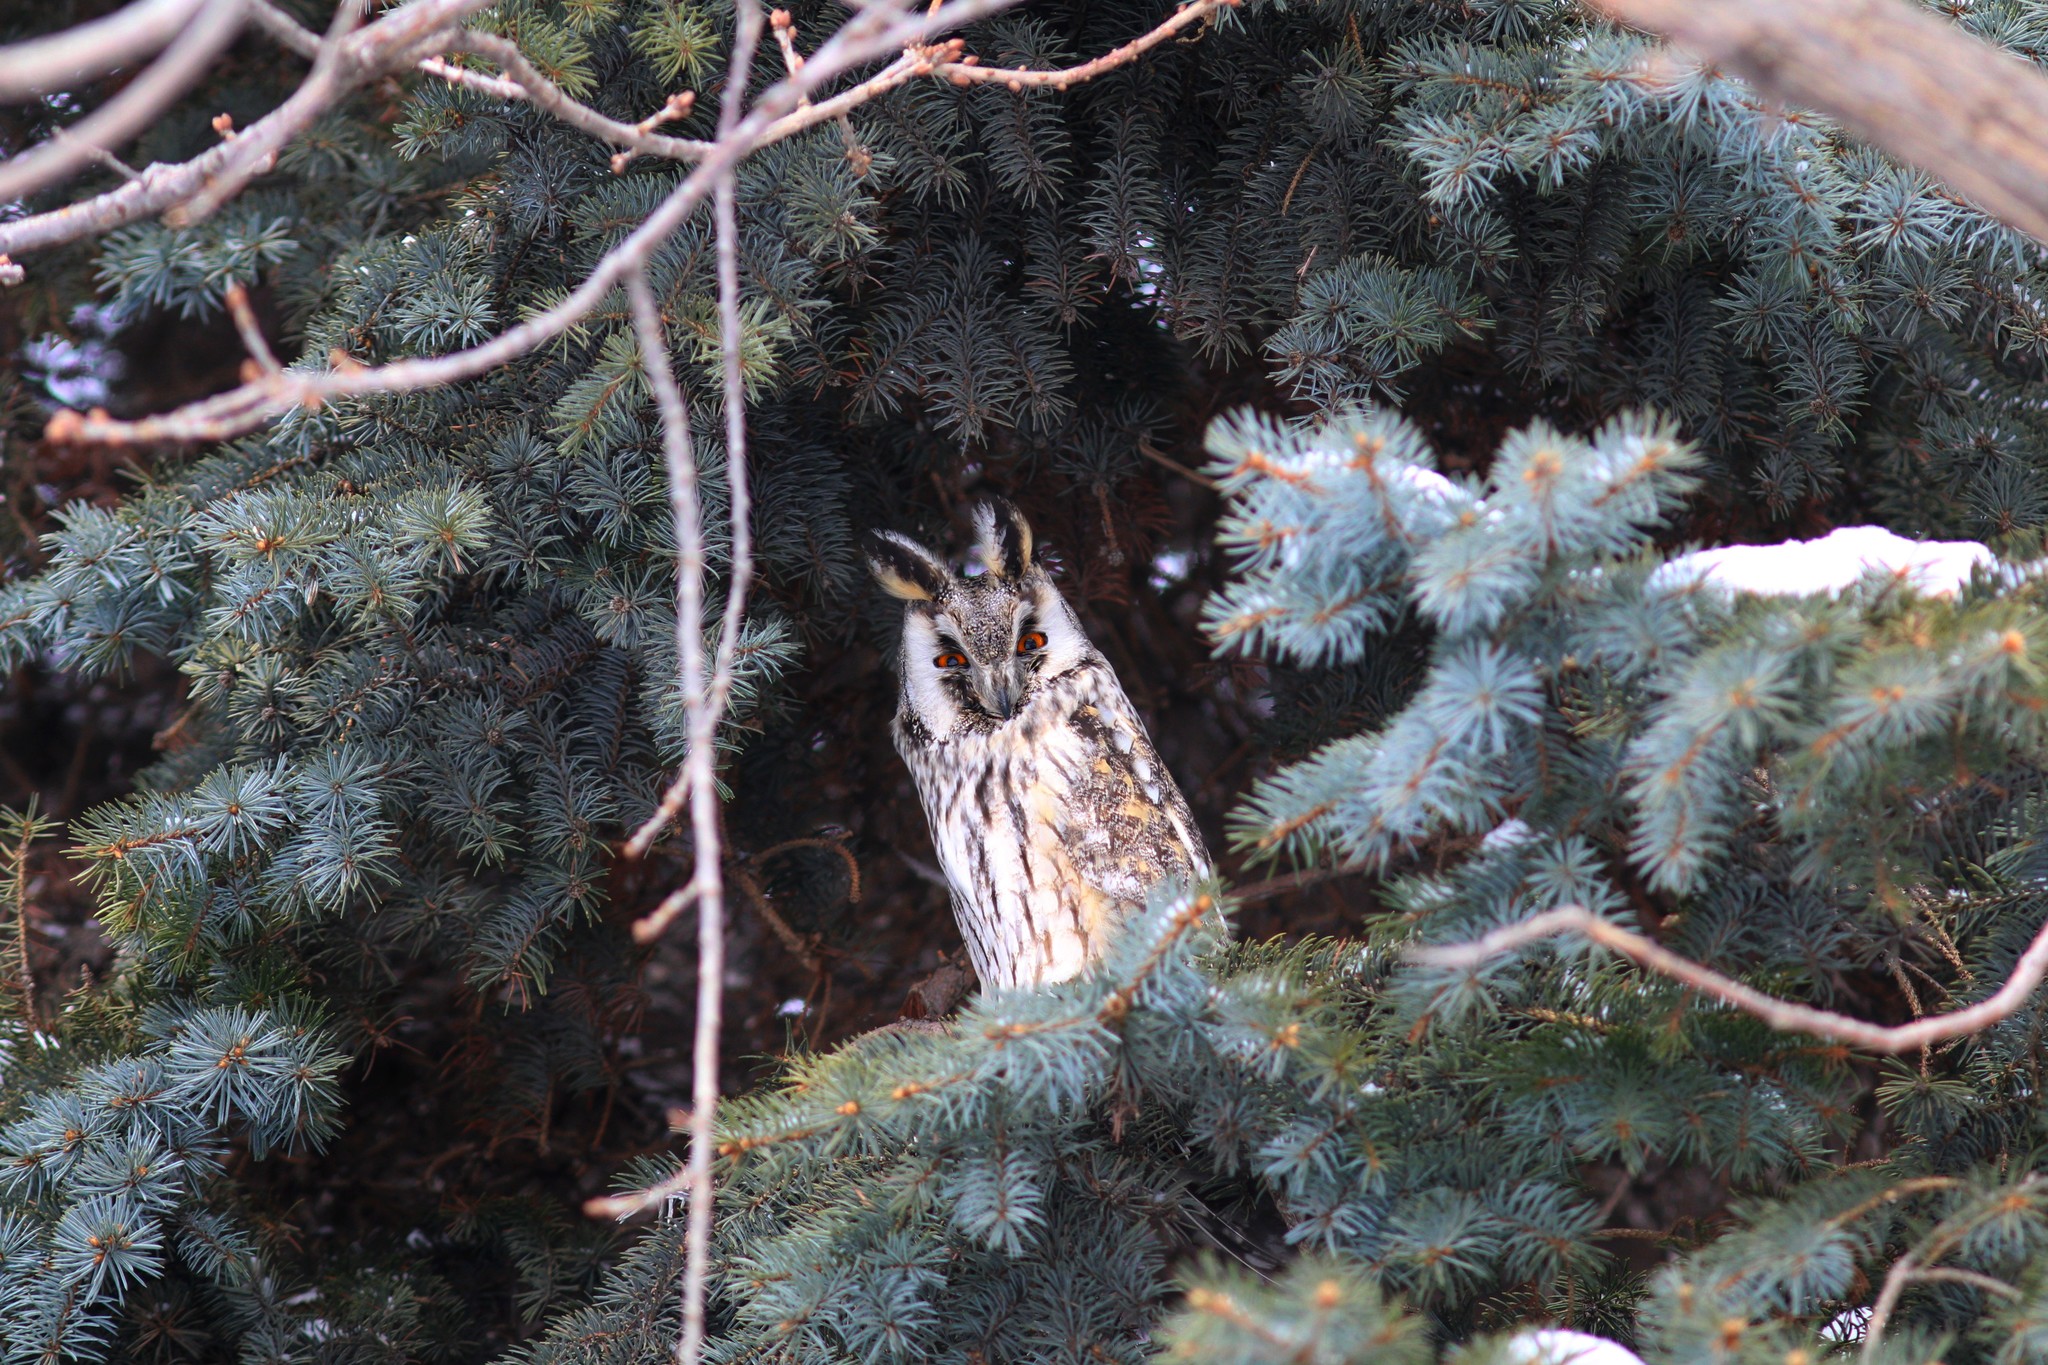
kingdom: Animalia
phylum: Chordata
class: Aves
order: Strigiformes
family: Strigidae
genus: Asio
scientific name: Asio otus
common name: Long-eared owl
